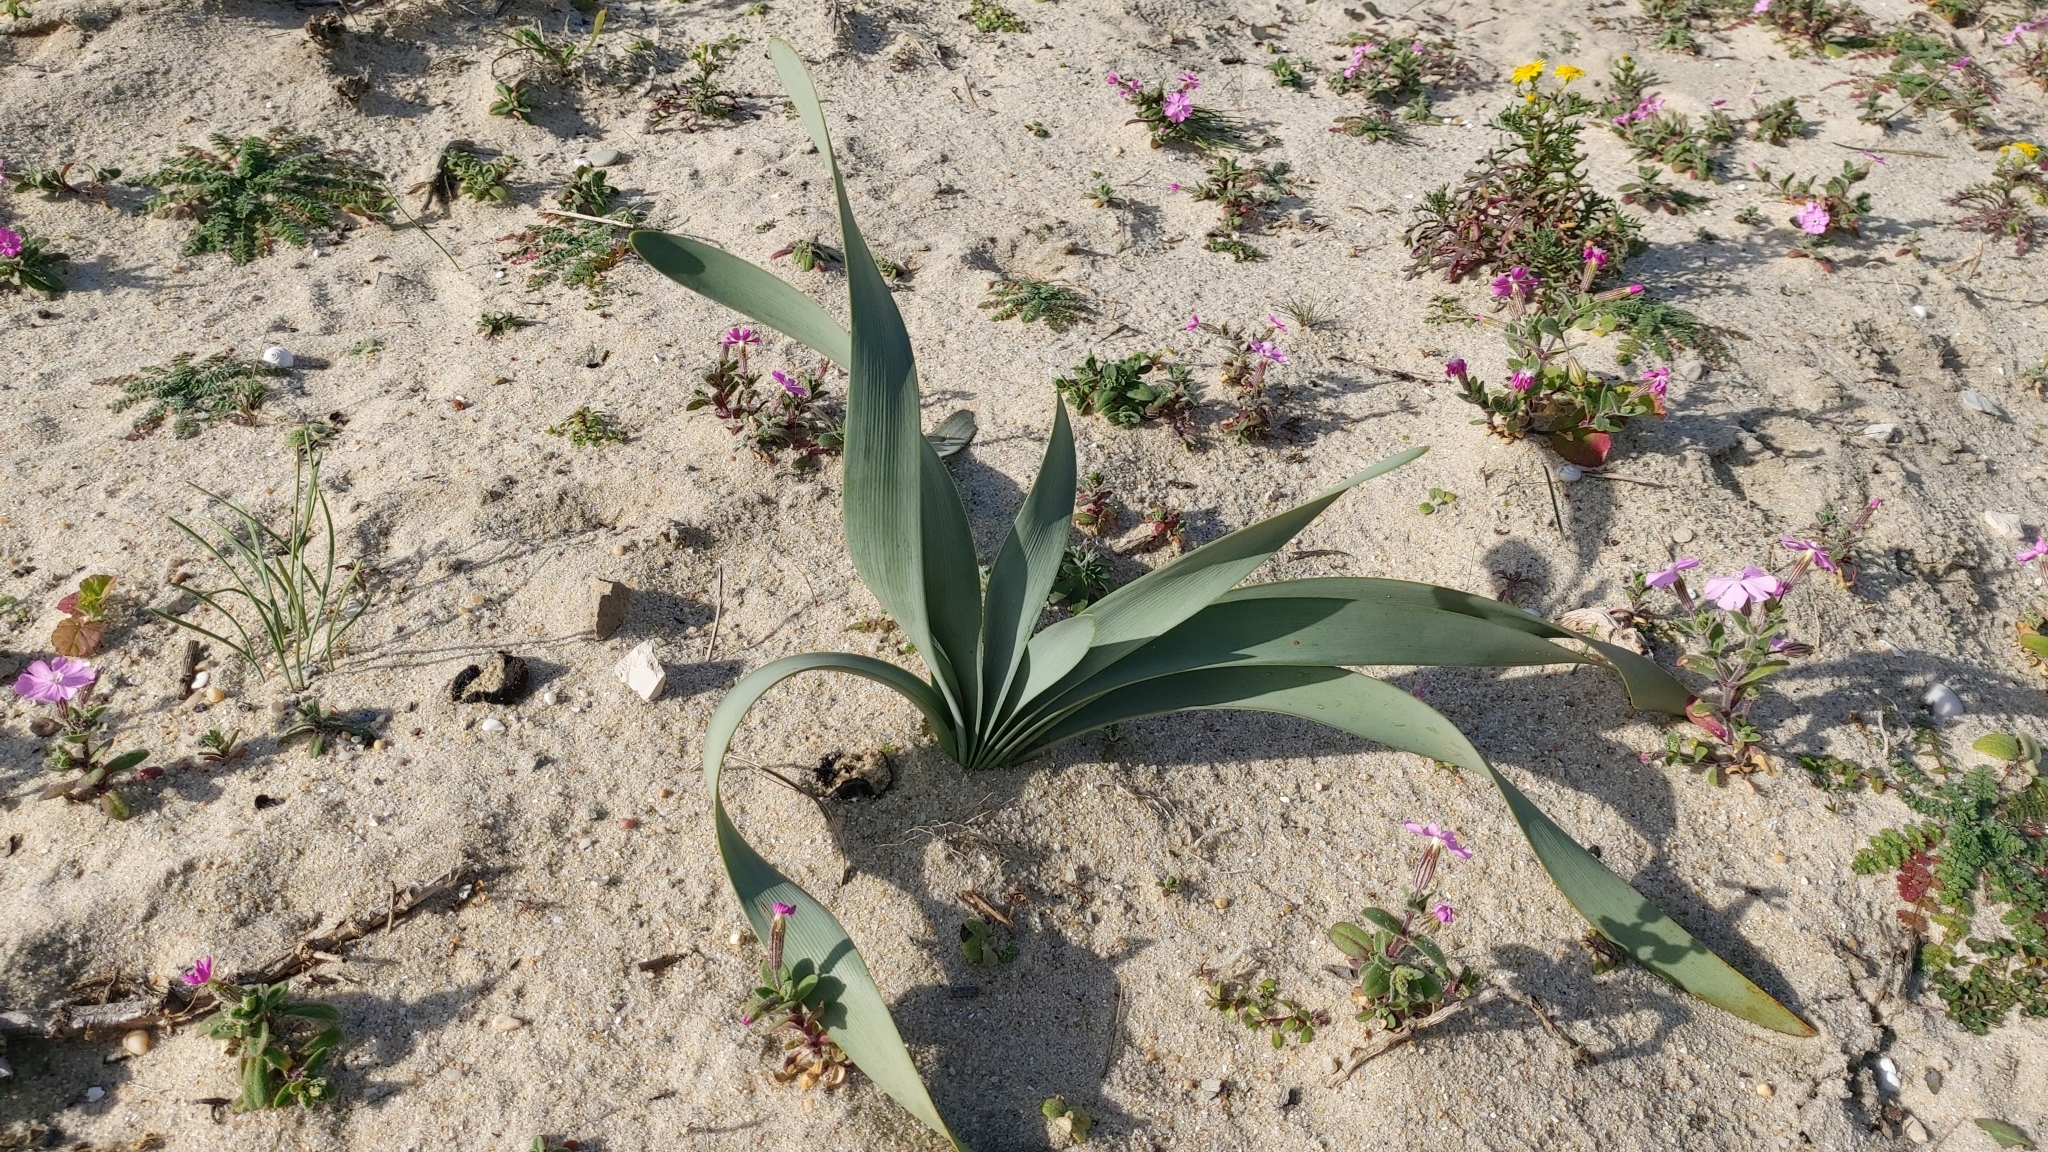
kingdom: Plantae
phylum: Tracheophyta
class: Liliopsida
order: Asparagales
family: Amaryllidaceae
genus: Pancratium
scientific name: Pancratium maritimum
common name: Sea-daffodil
